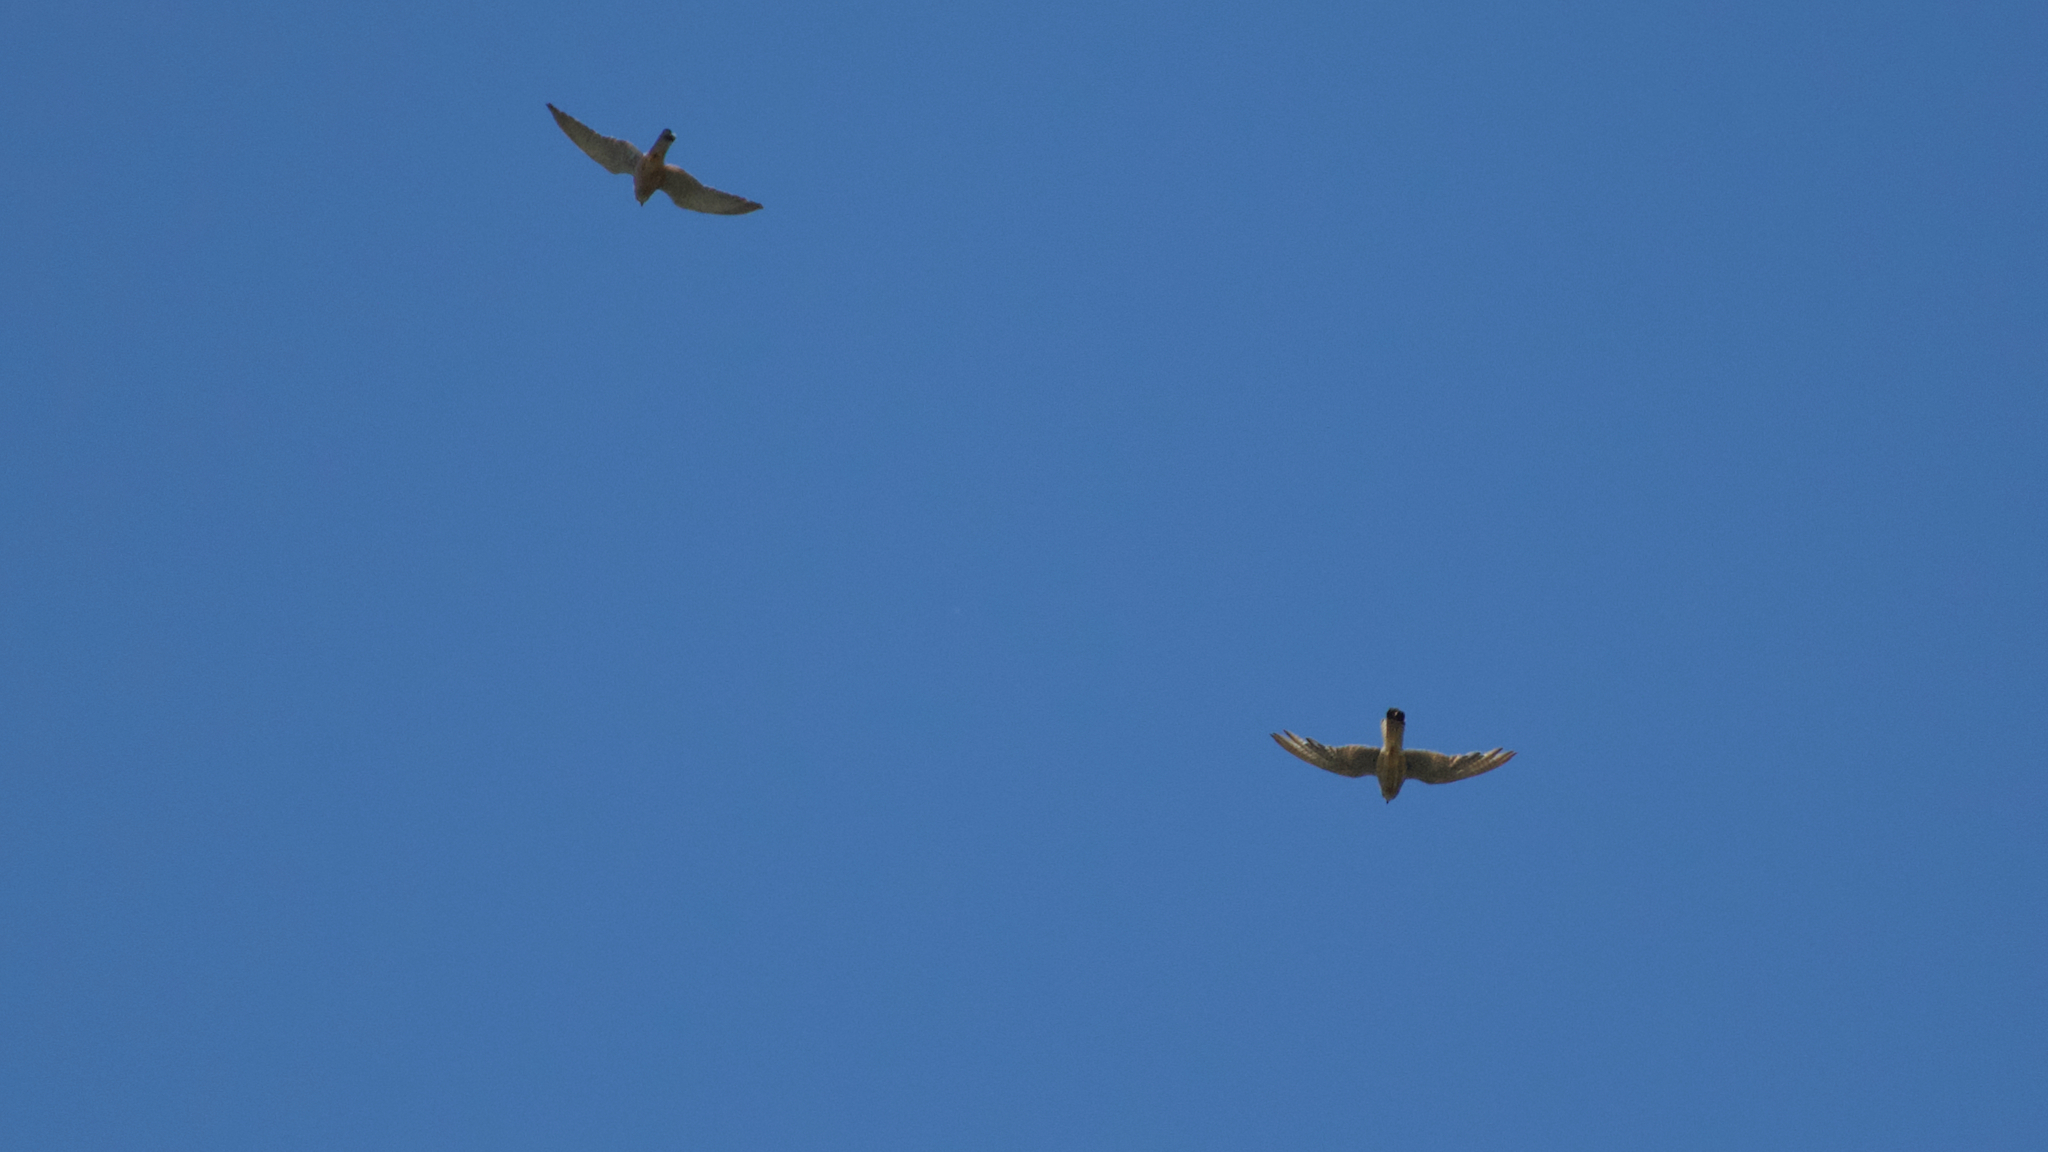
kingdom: Animalia
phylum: Chordata
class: Aves
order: Falconiformes
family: Falconidae
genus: Falco
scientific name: Falco tinnunculus
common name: Common kestrel
